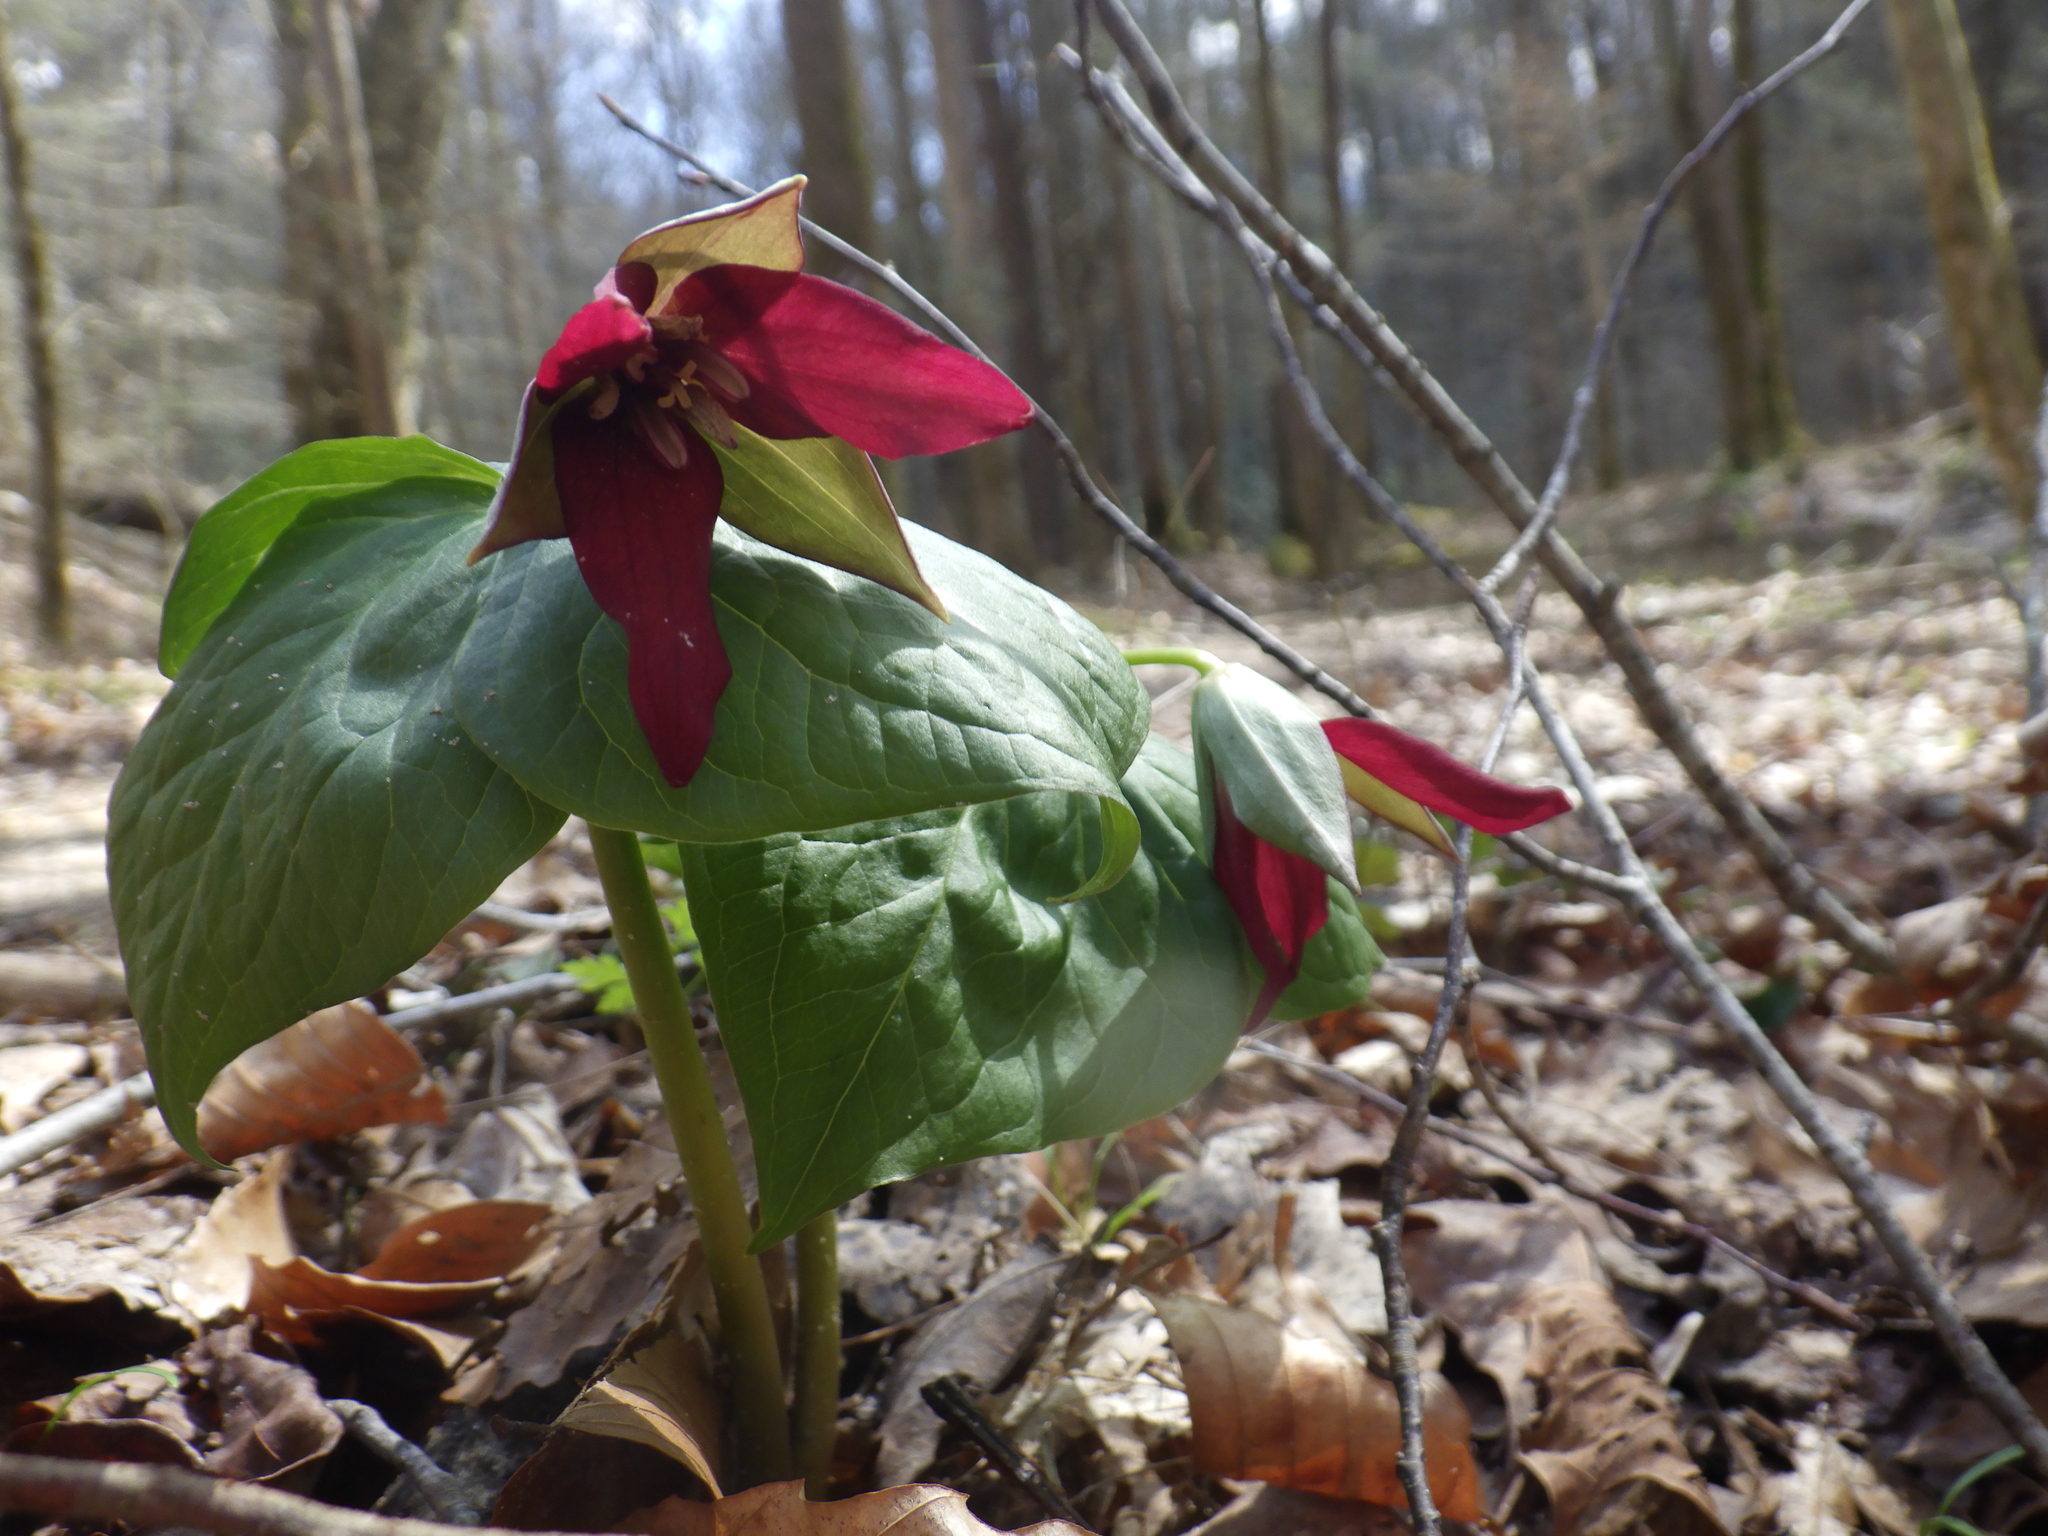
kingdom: Plantae
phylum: Tracheophyta
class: Liliopsida
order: Liliales
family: Melanthiaceae
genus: Trillium
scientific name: Trillium erectum
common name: Purple trillium
